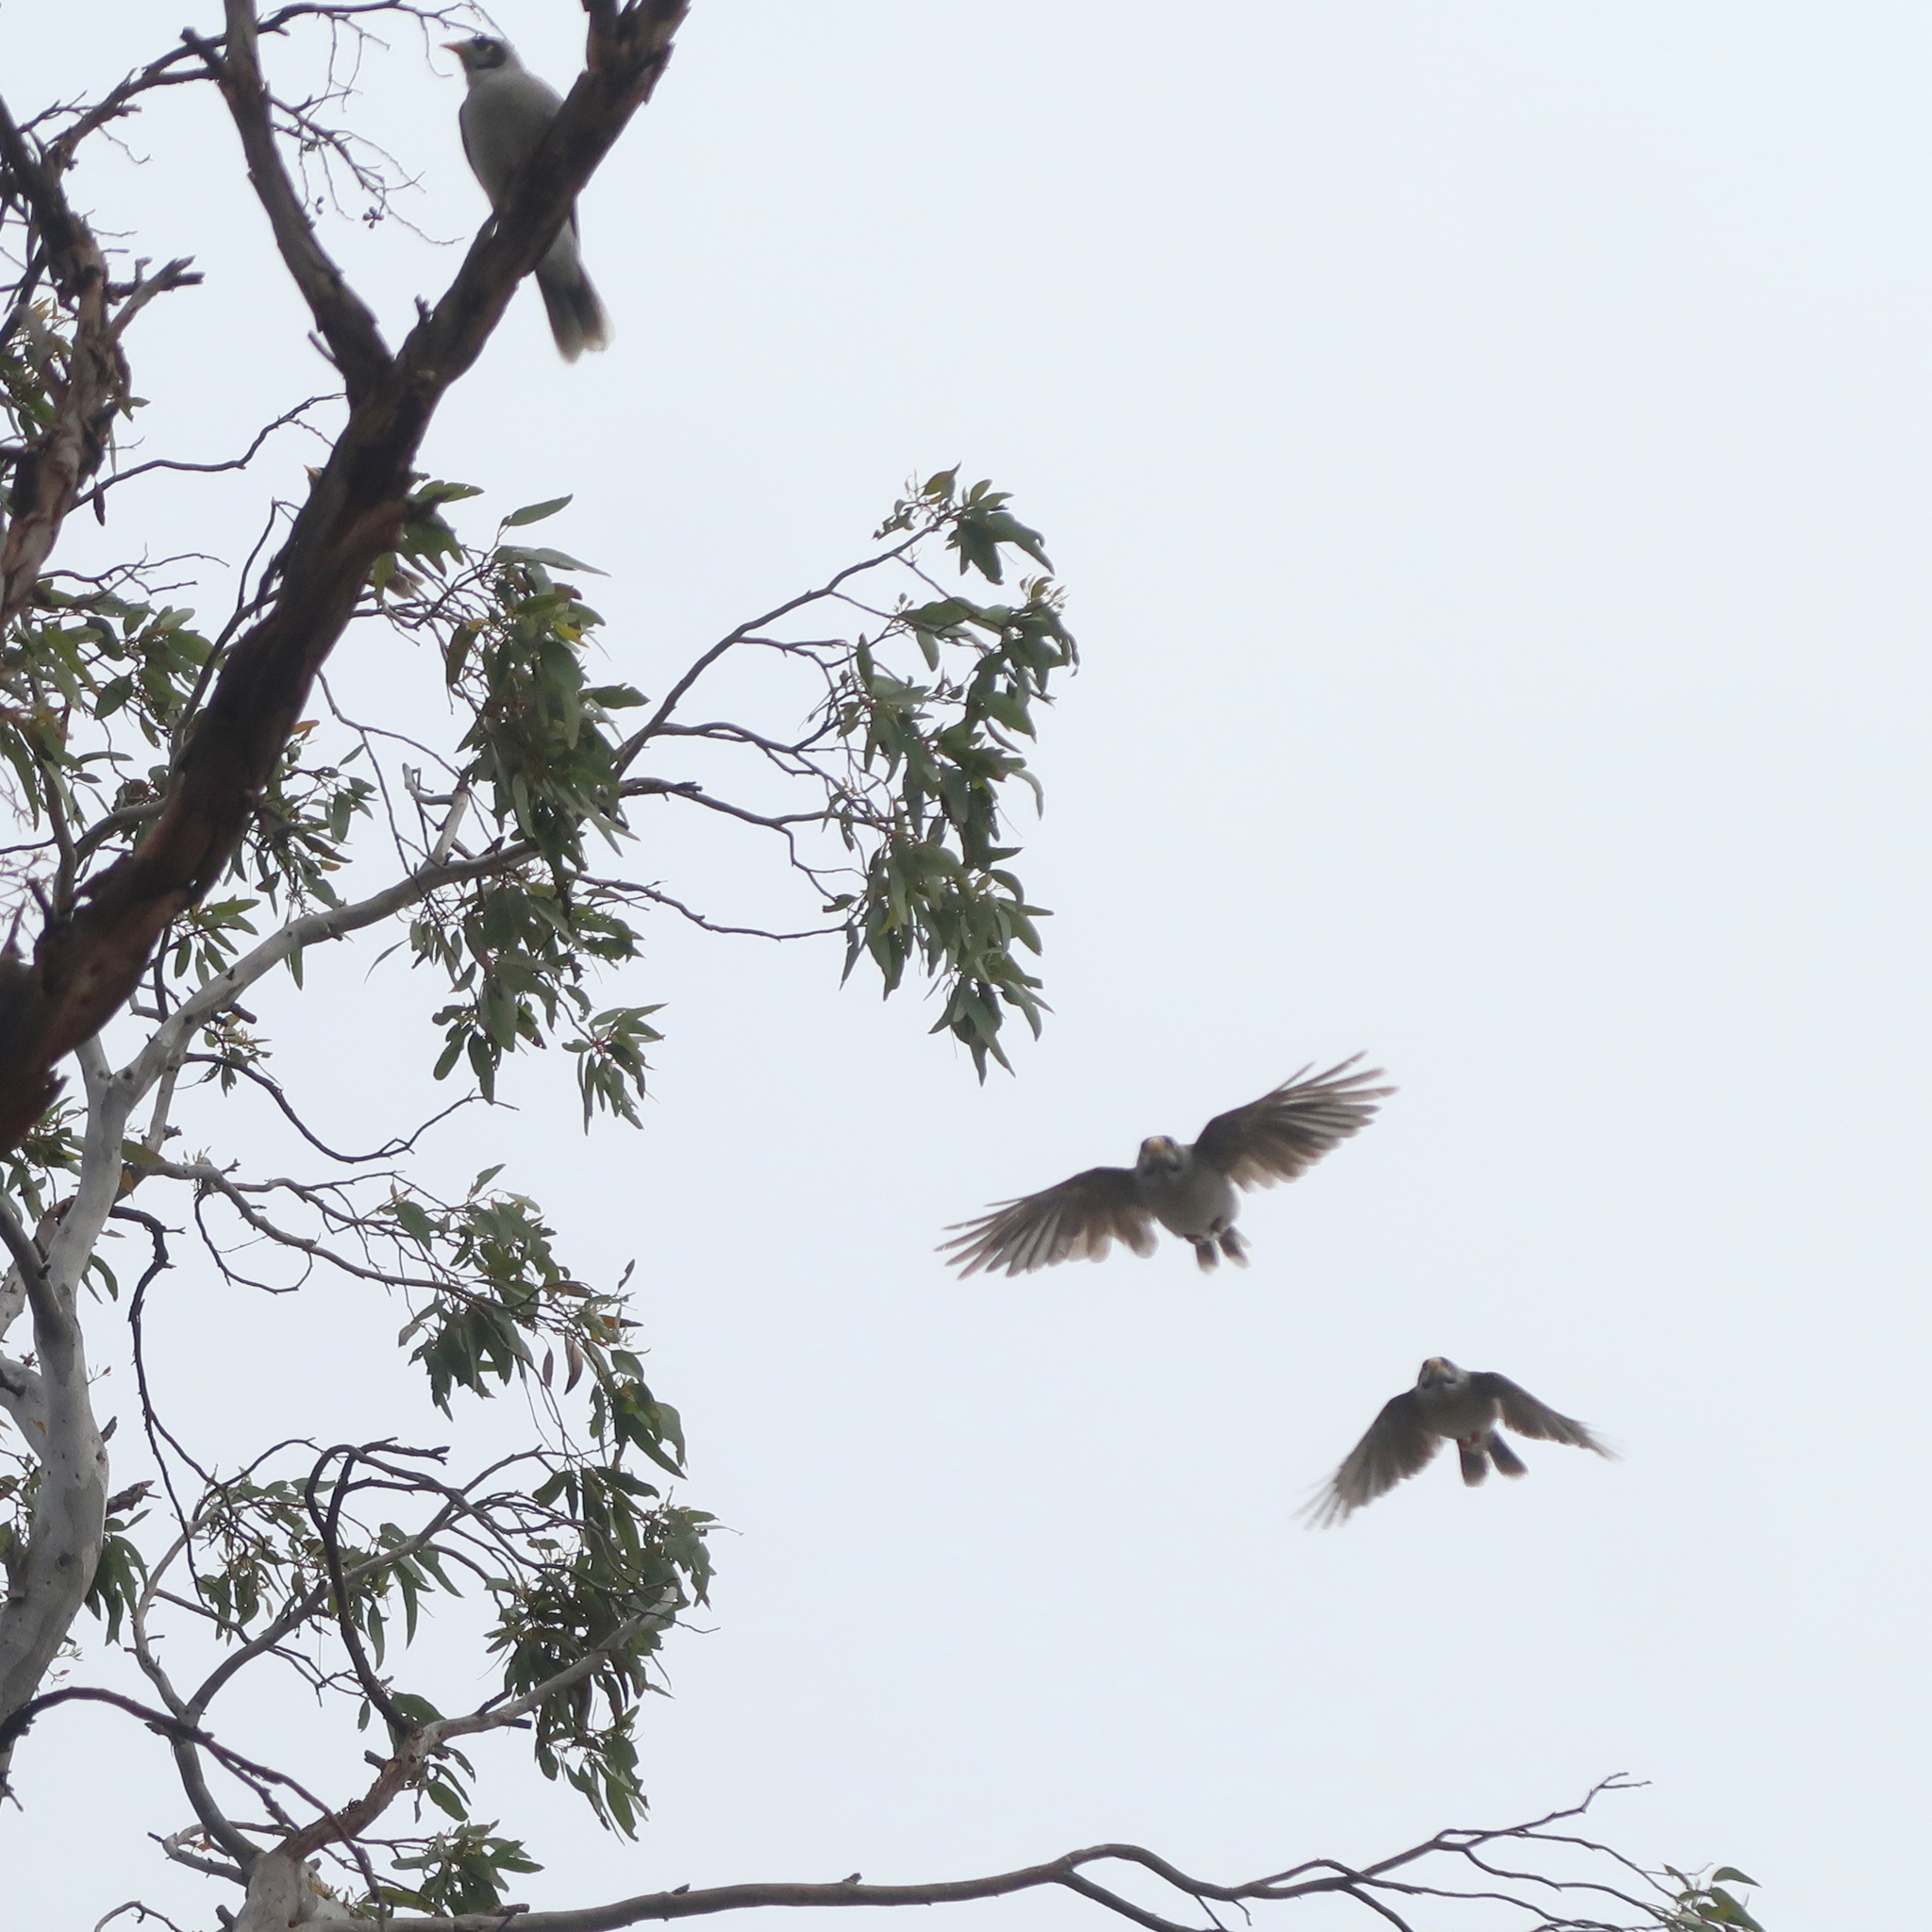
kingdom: Animalia
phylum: Chordata
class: Aves
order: Passeriformes
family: Meliphagidae
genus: Manorina
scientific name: Manorina melanocephala
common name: Noisy miner
